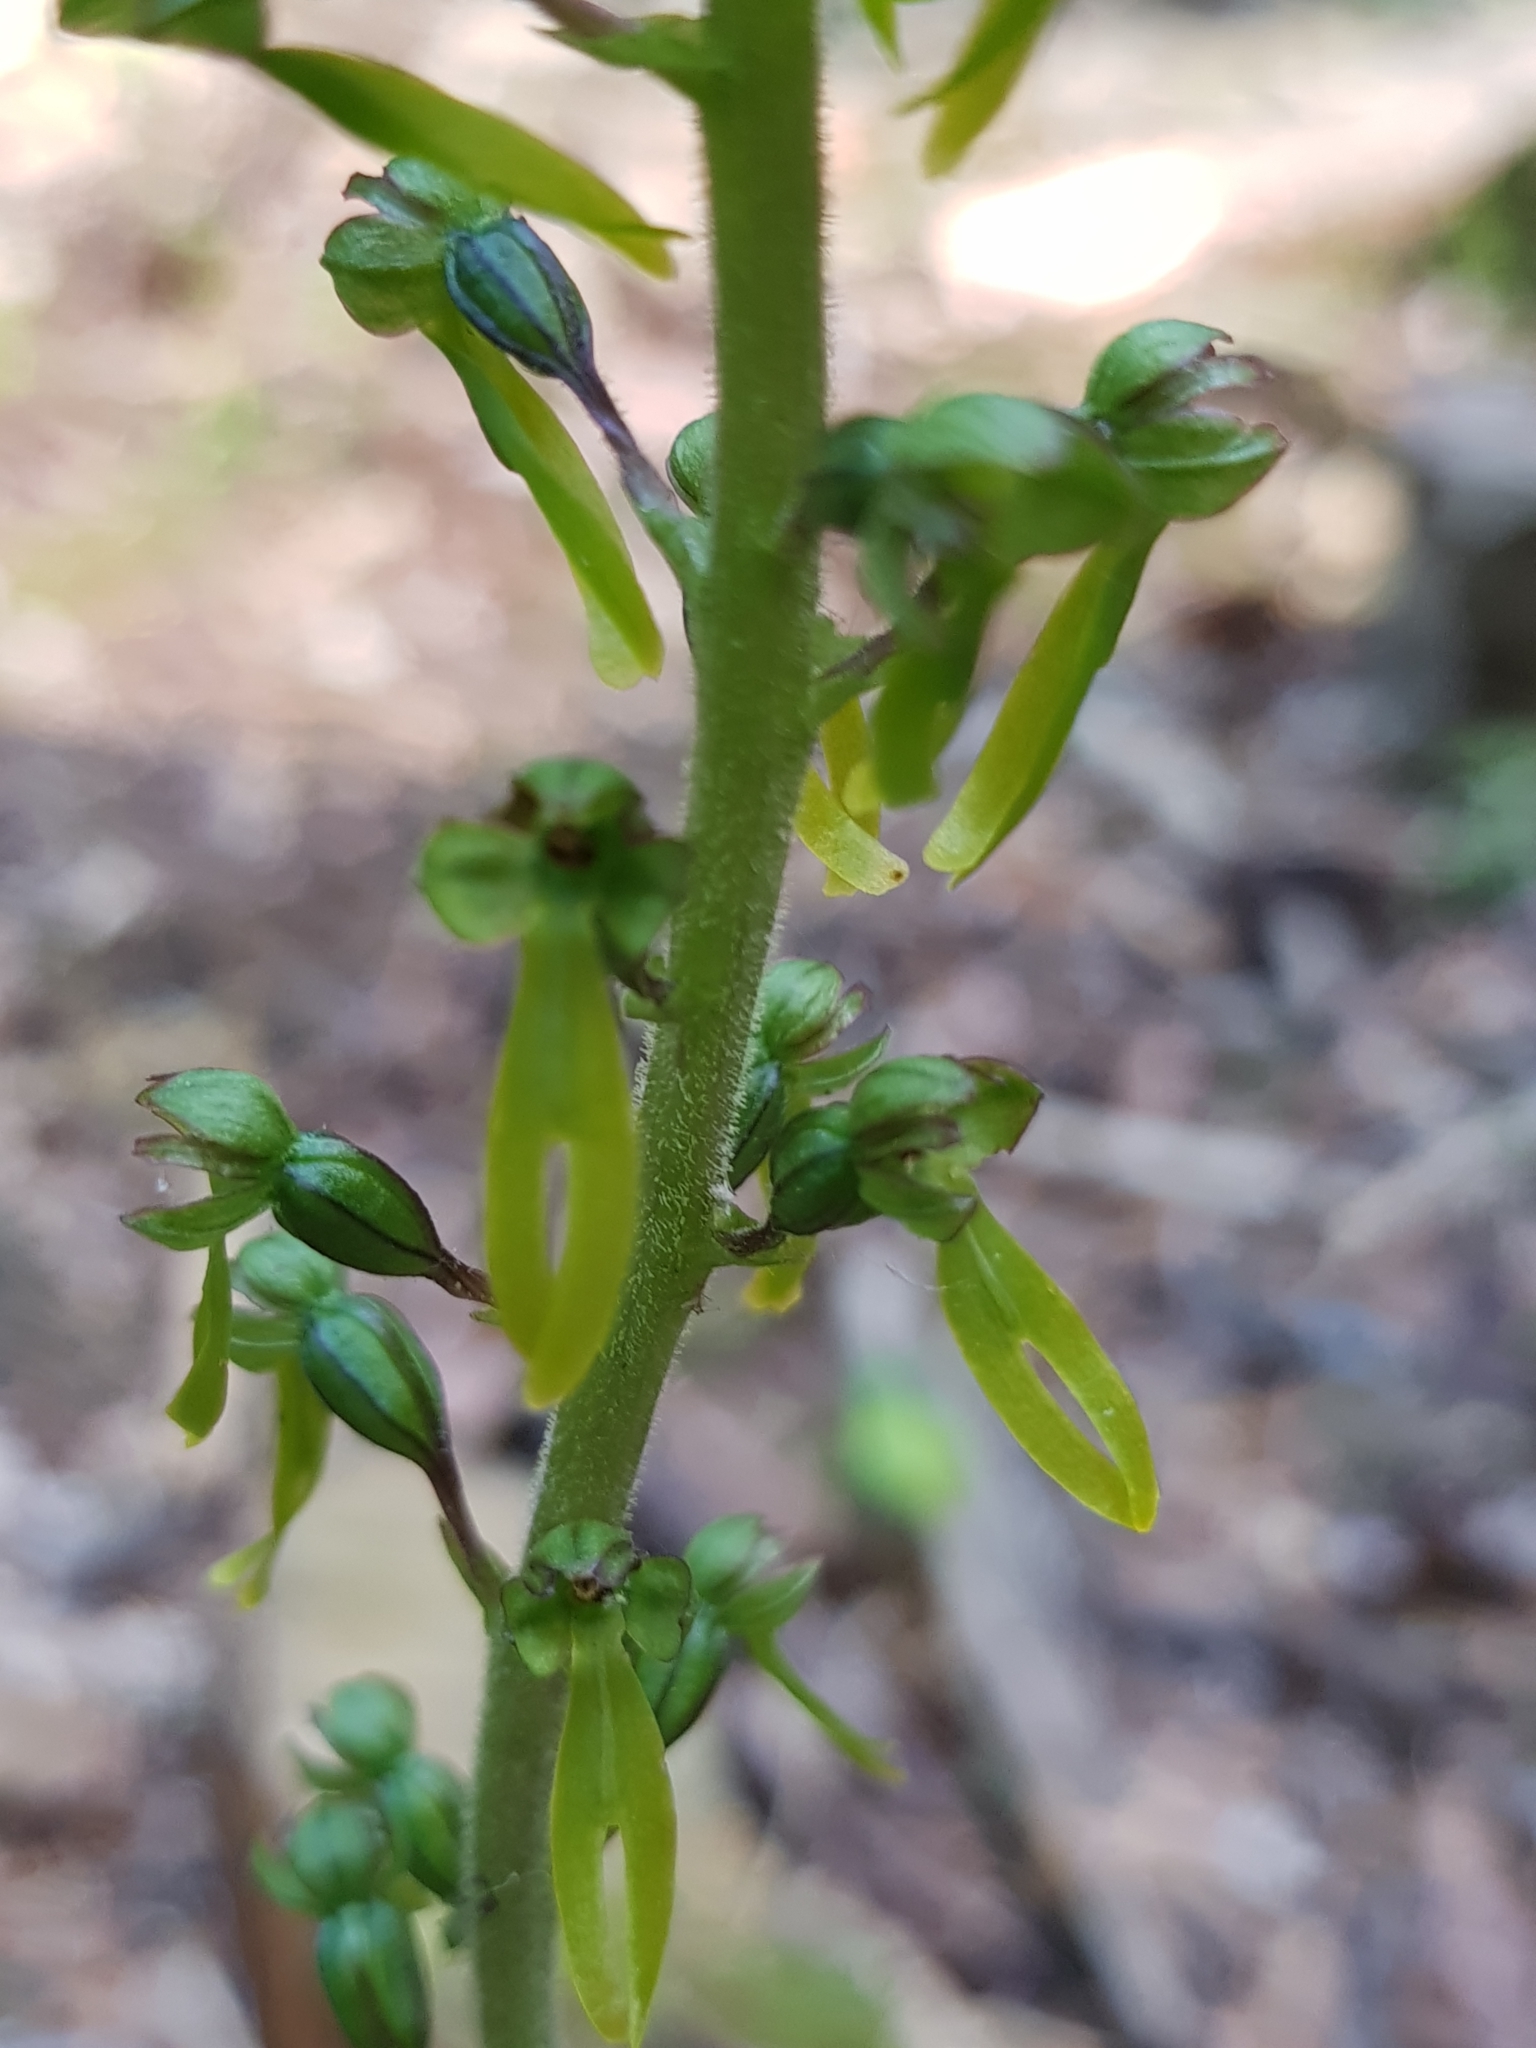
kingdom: Plantae
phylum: Tracheophyta
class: Liliopsida
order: Asparagales
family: Orchidaceae
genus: Neottia
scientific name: Neottia ovata
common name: Common twayblade
